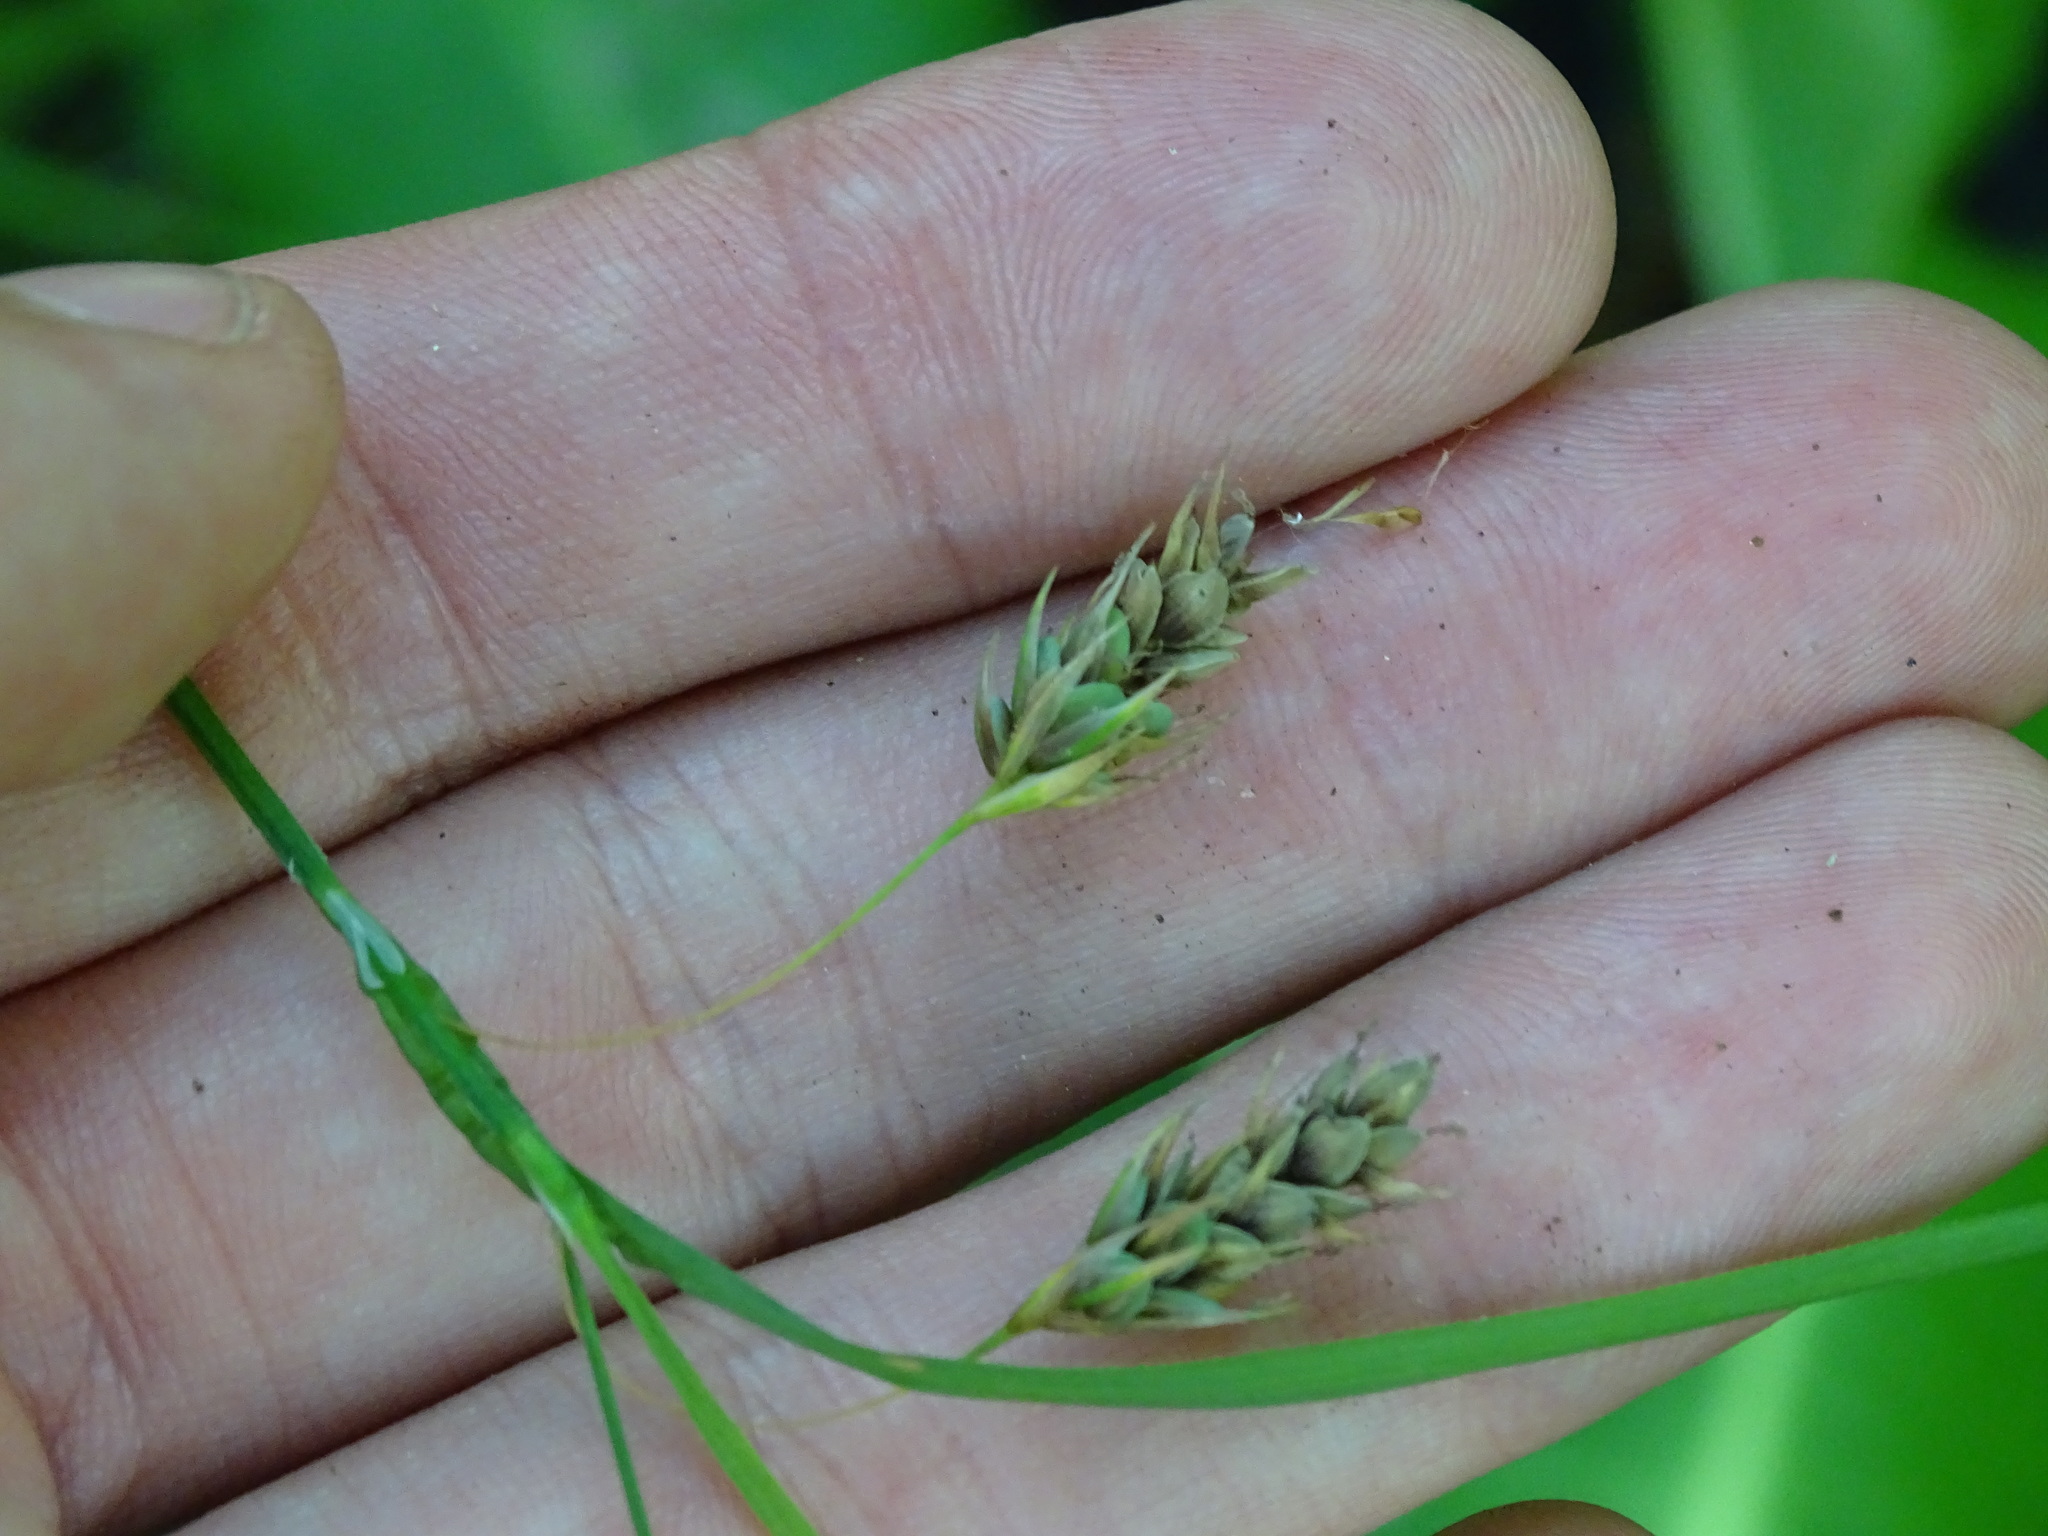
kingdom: Plantae
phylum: Tracheophyta
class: Liliopsida
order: Poales
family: Cyperaceae
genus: Carex
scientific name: Carex magellanica
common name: Bog sedge
